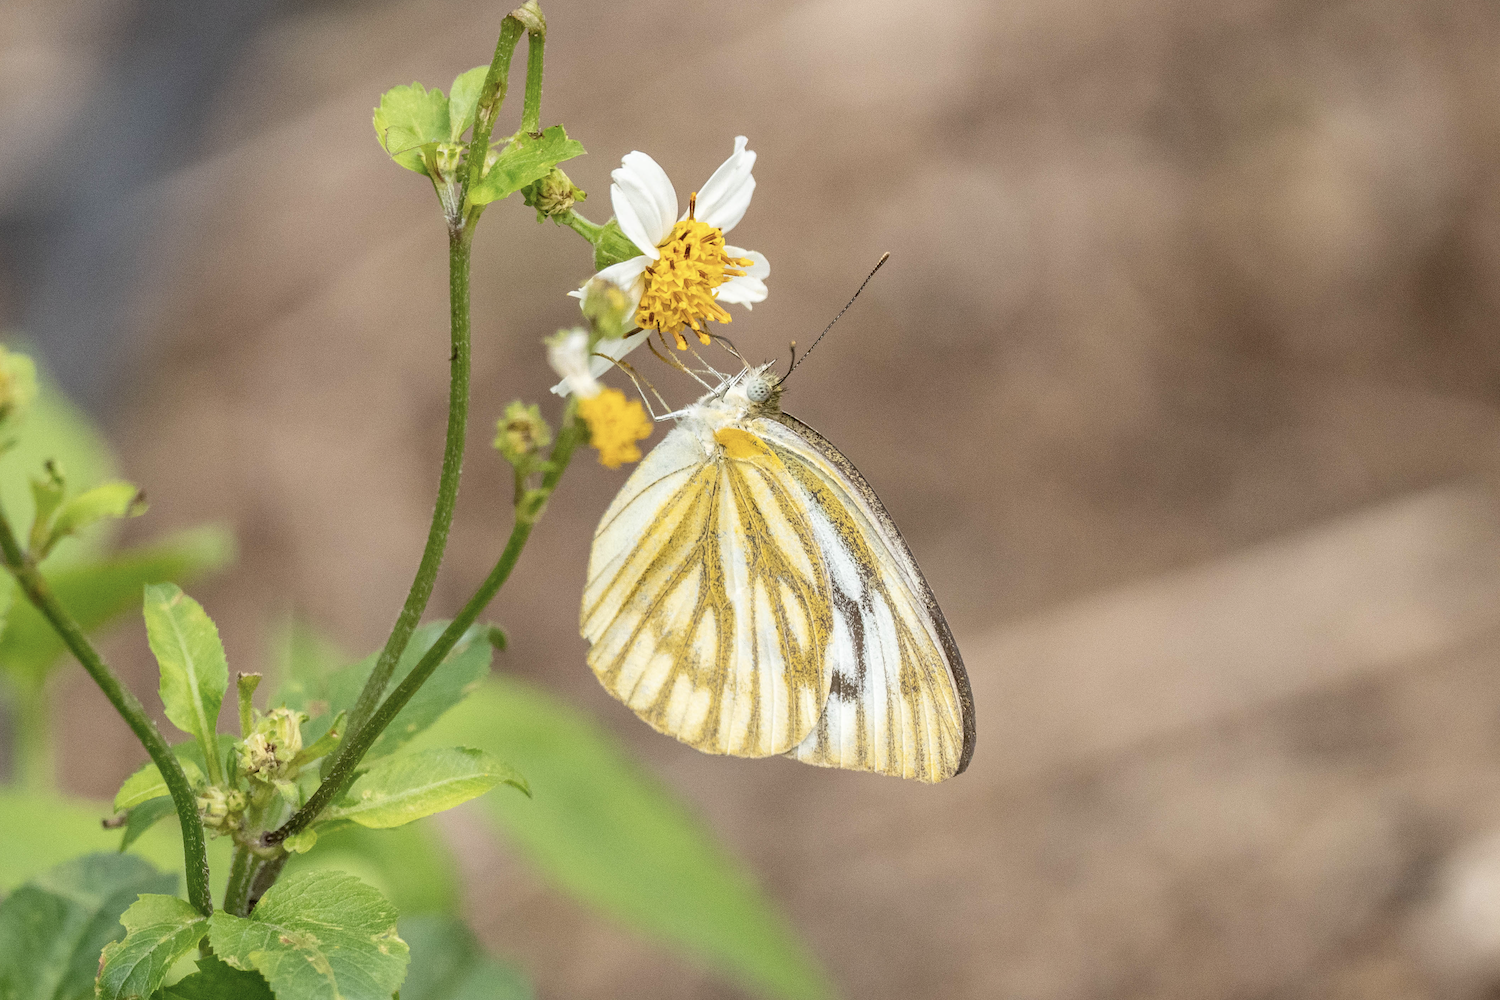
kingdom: Animalia
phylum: Arthropoda
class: Insecta
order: Lepidoptera
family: Pieridae
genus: Cepora
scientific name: Cepora nerissa
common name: Common gull
